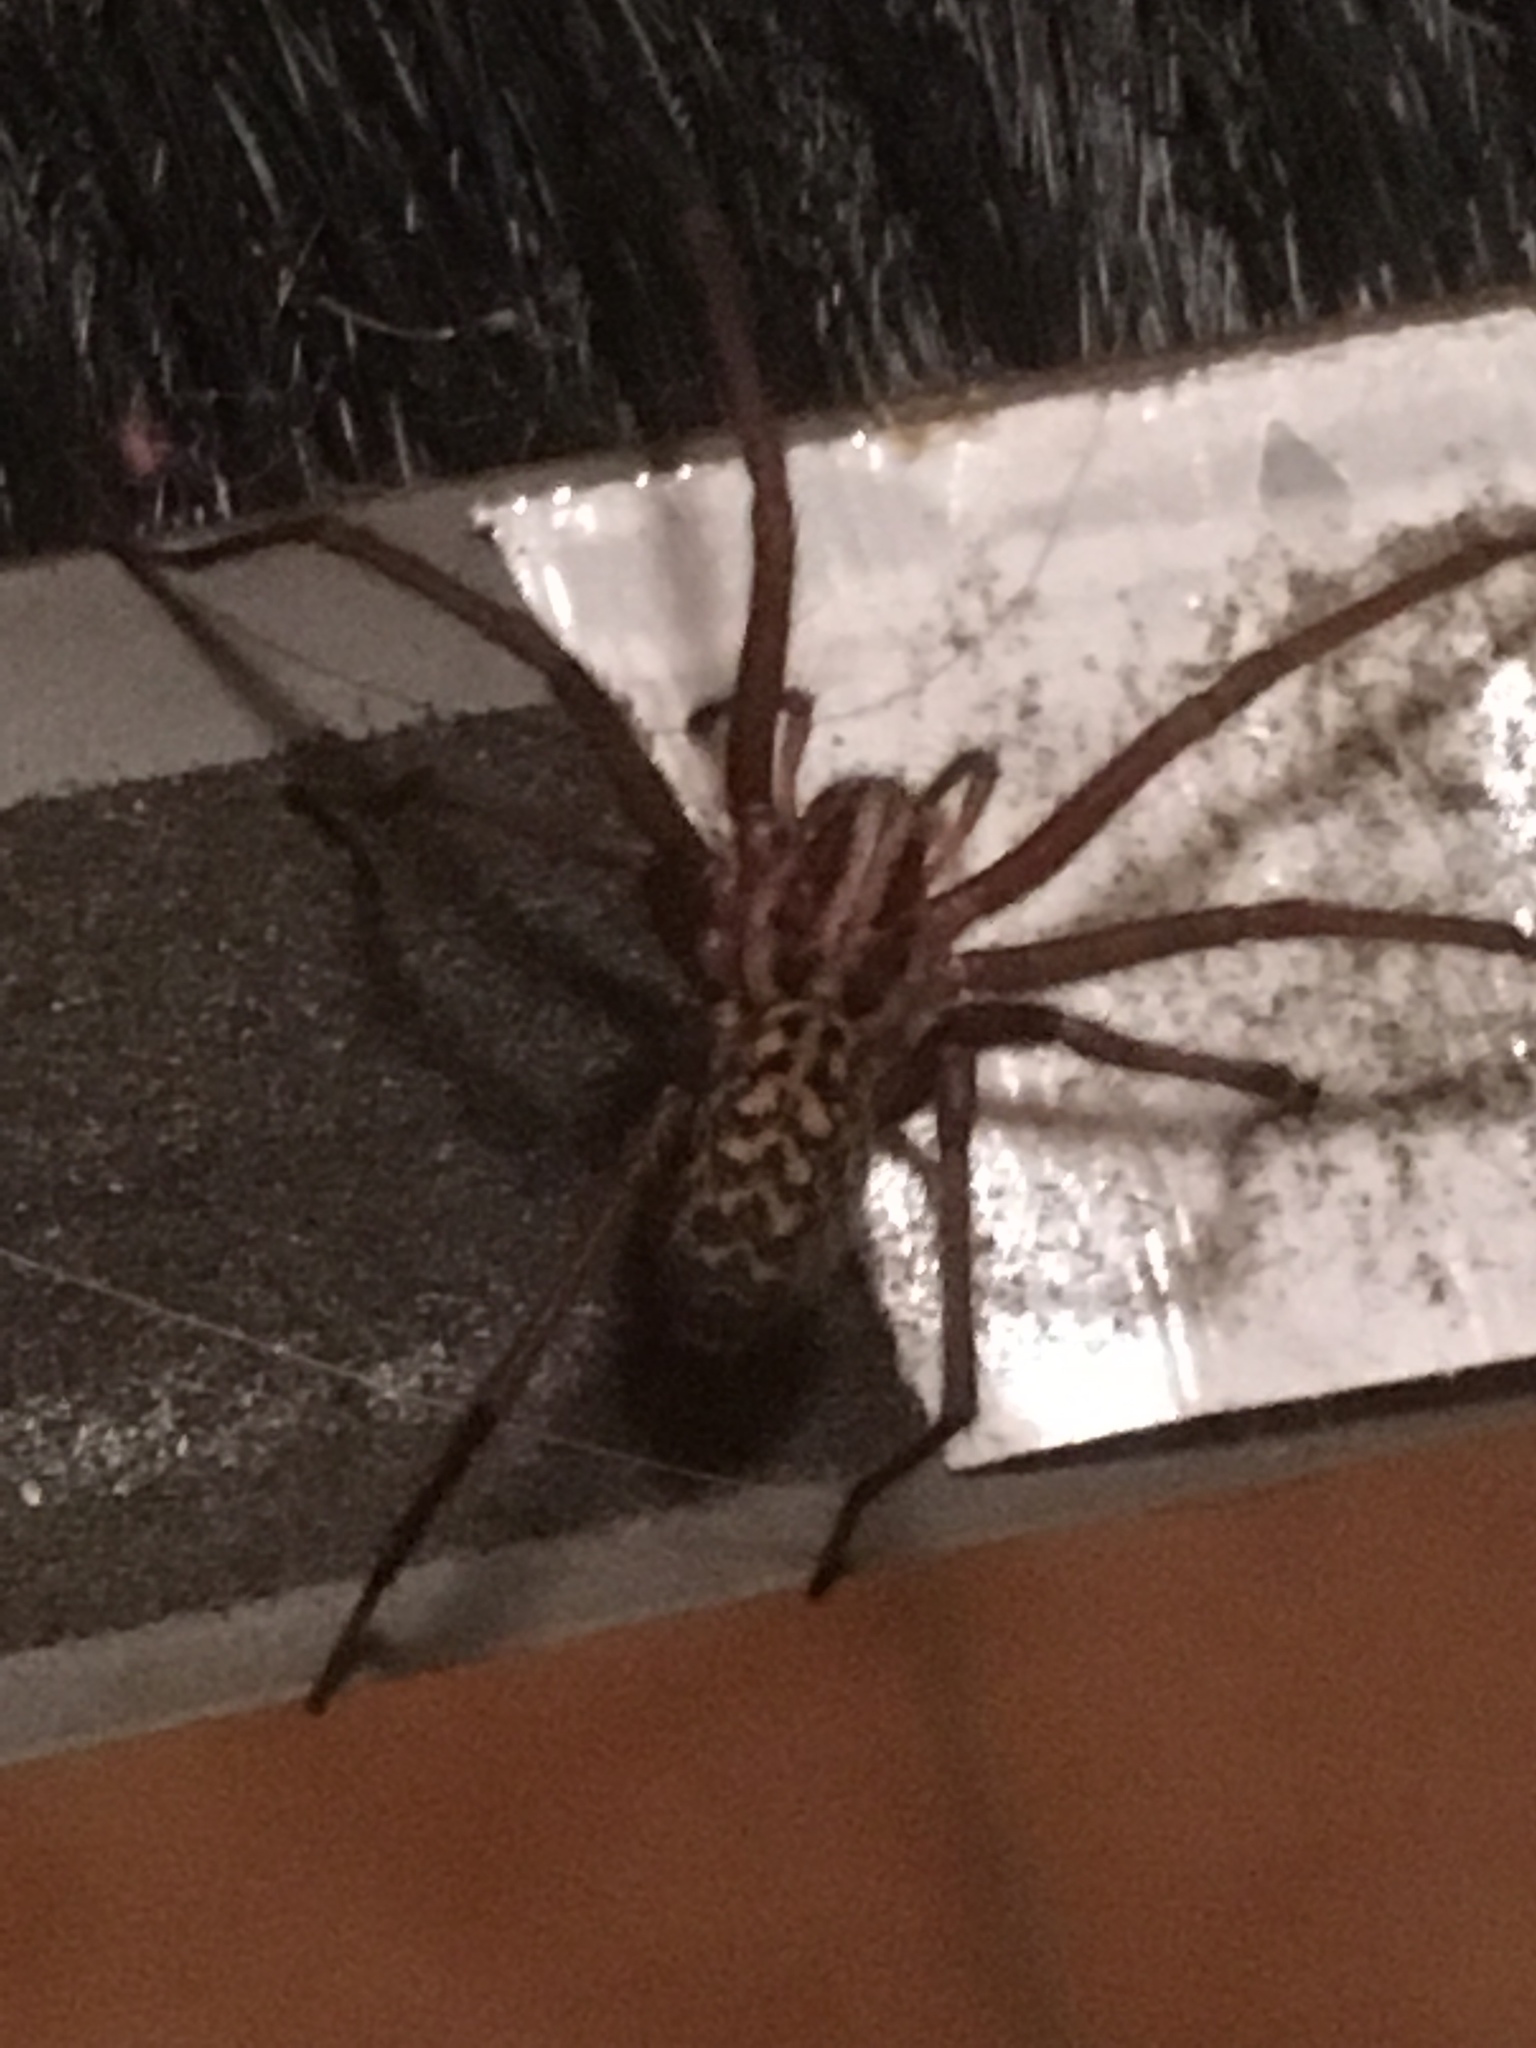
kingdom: Animalia
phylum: Arthropoda
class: Arachnida
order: Araneae
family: Agelenidae
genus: Eratigena
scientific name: Eratigena atrica
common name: Giant house spider
